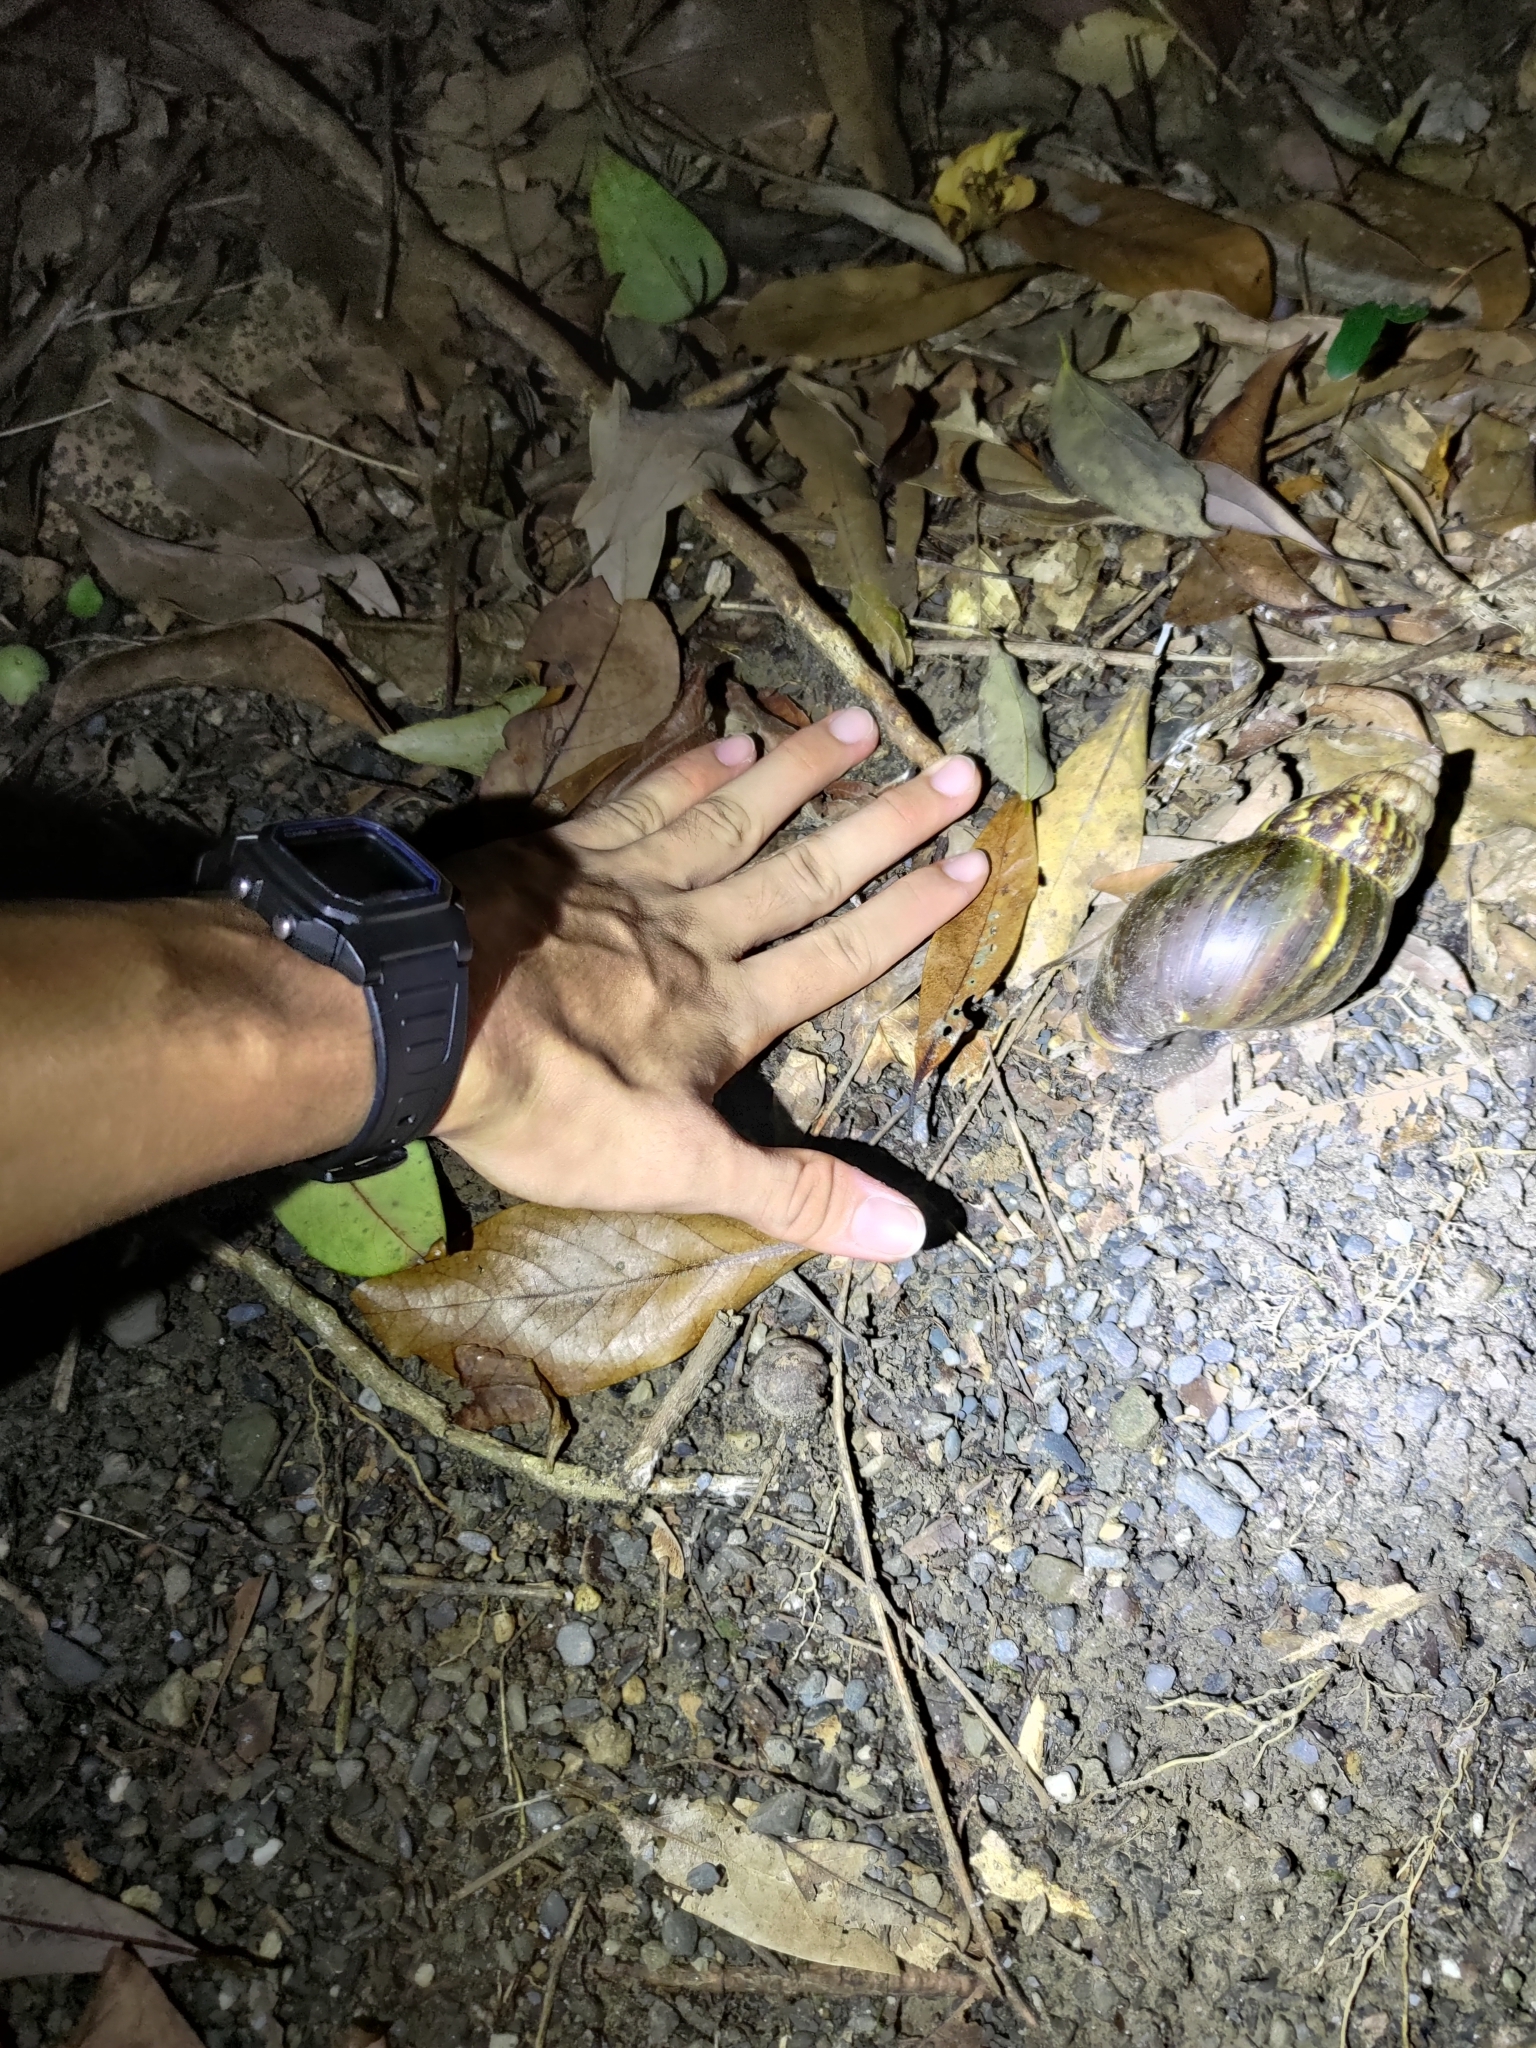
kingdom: Animalia
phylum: Mollusca
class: Gastropoda
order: Stylommatophora
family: Achatinidae
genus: Lissachatina
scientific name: Lissachatina fulica
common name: Giant african snail
